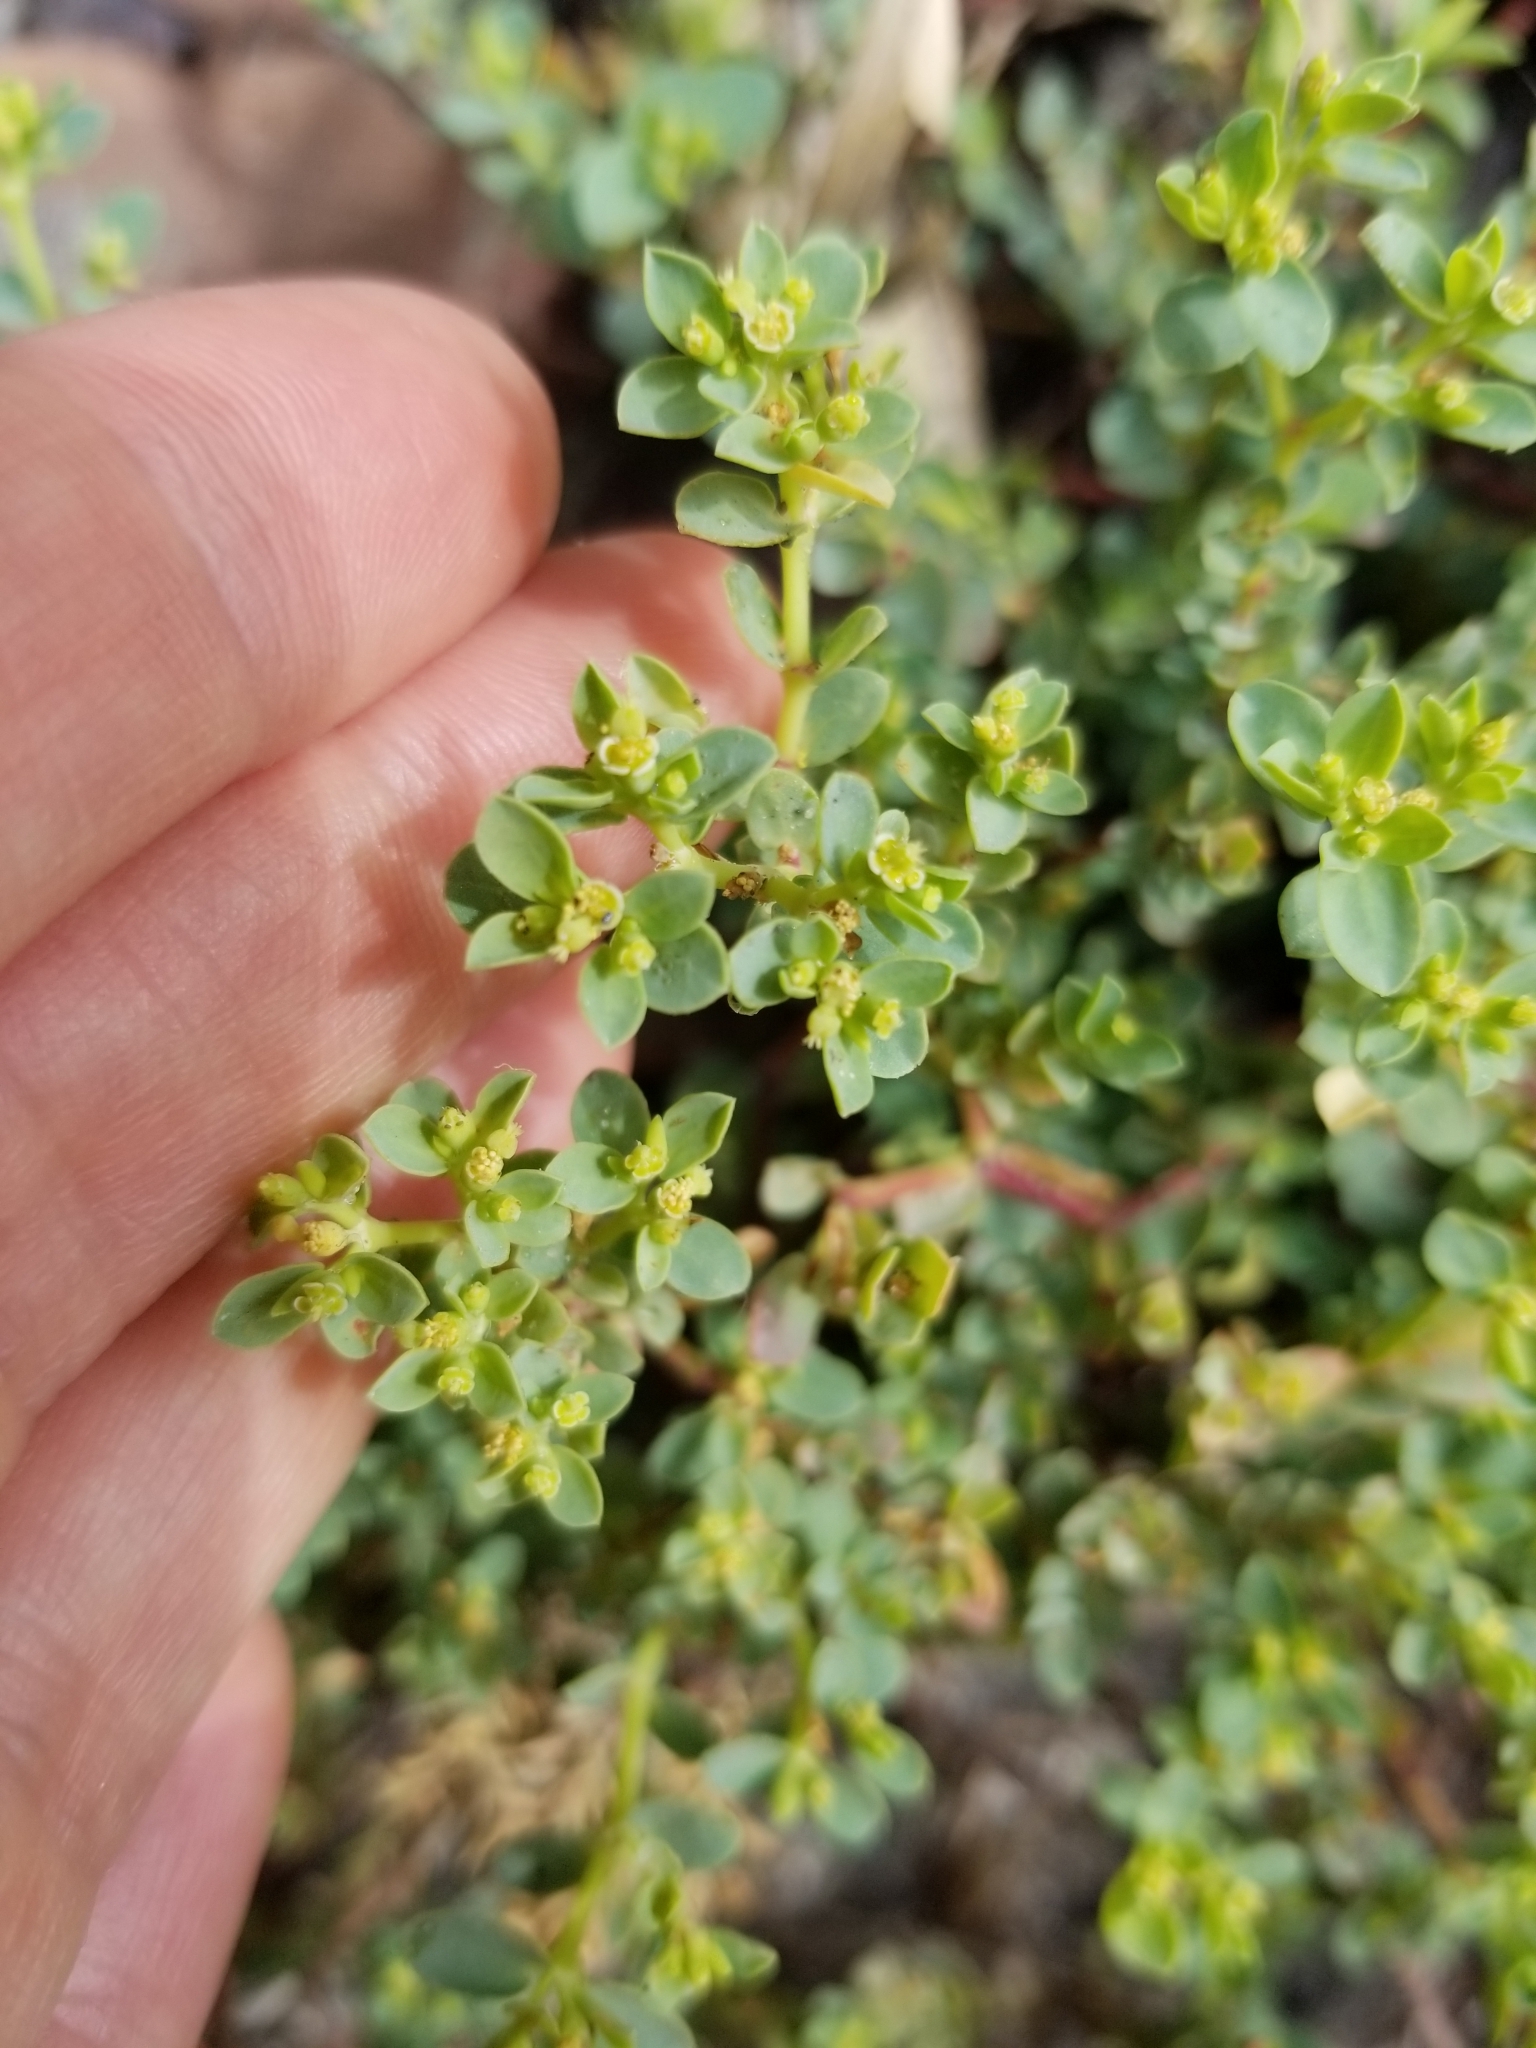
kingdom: Plantae
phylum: Tracheophyta
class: Magnoliopsida
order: Malpighiales
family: Euphorbiaceae
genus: Euphorbia
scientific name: Euphorbia mesembryanthemifolia
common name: Coastal beach sandmat
